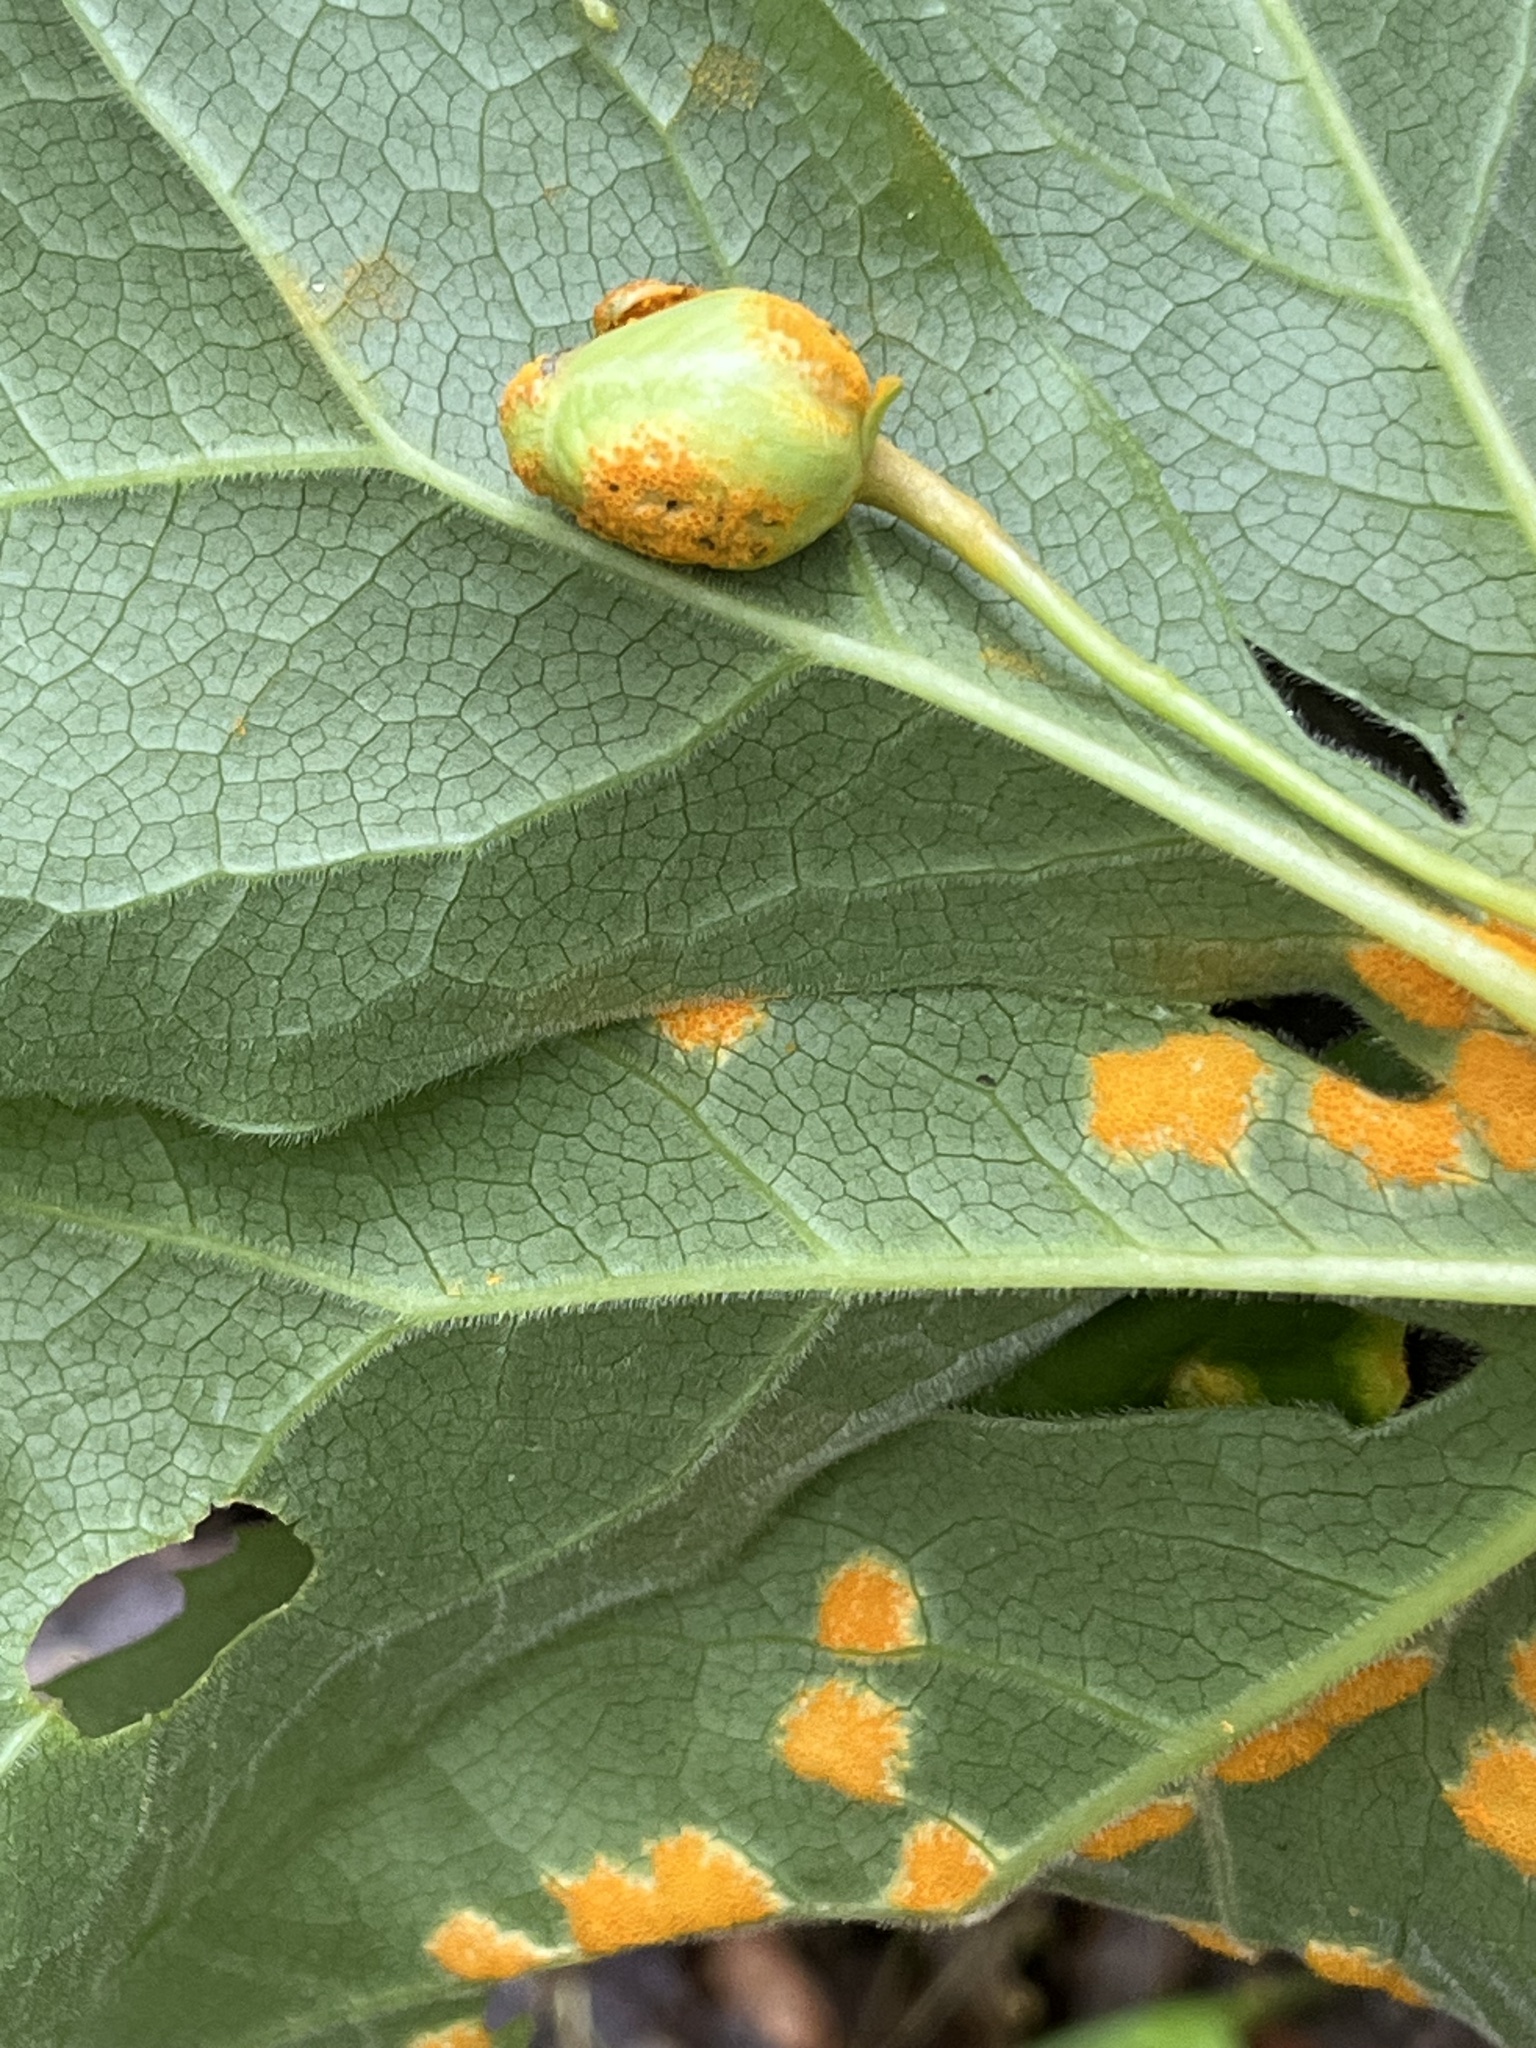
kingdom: Fungi
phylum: Basidiomycota
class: Pucciniomycetes
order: Pucciniales
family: Pucciniaceae
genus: Puccinia
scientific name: Puccinia podophylli
